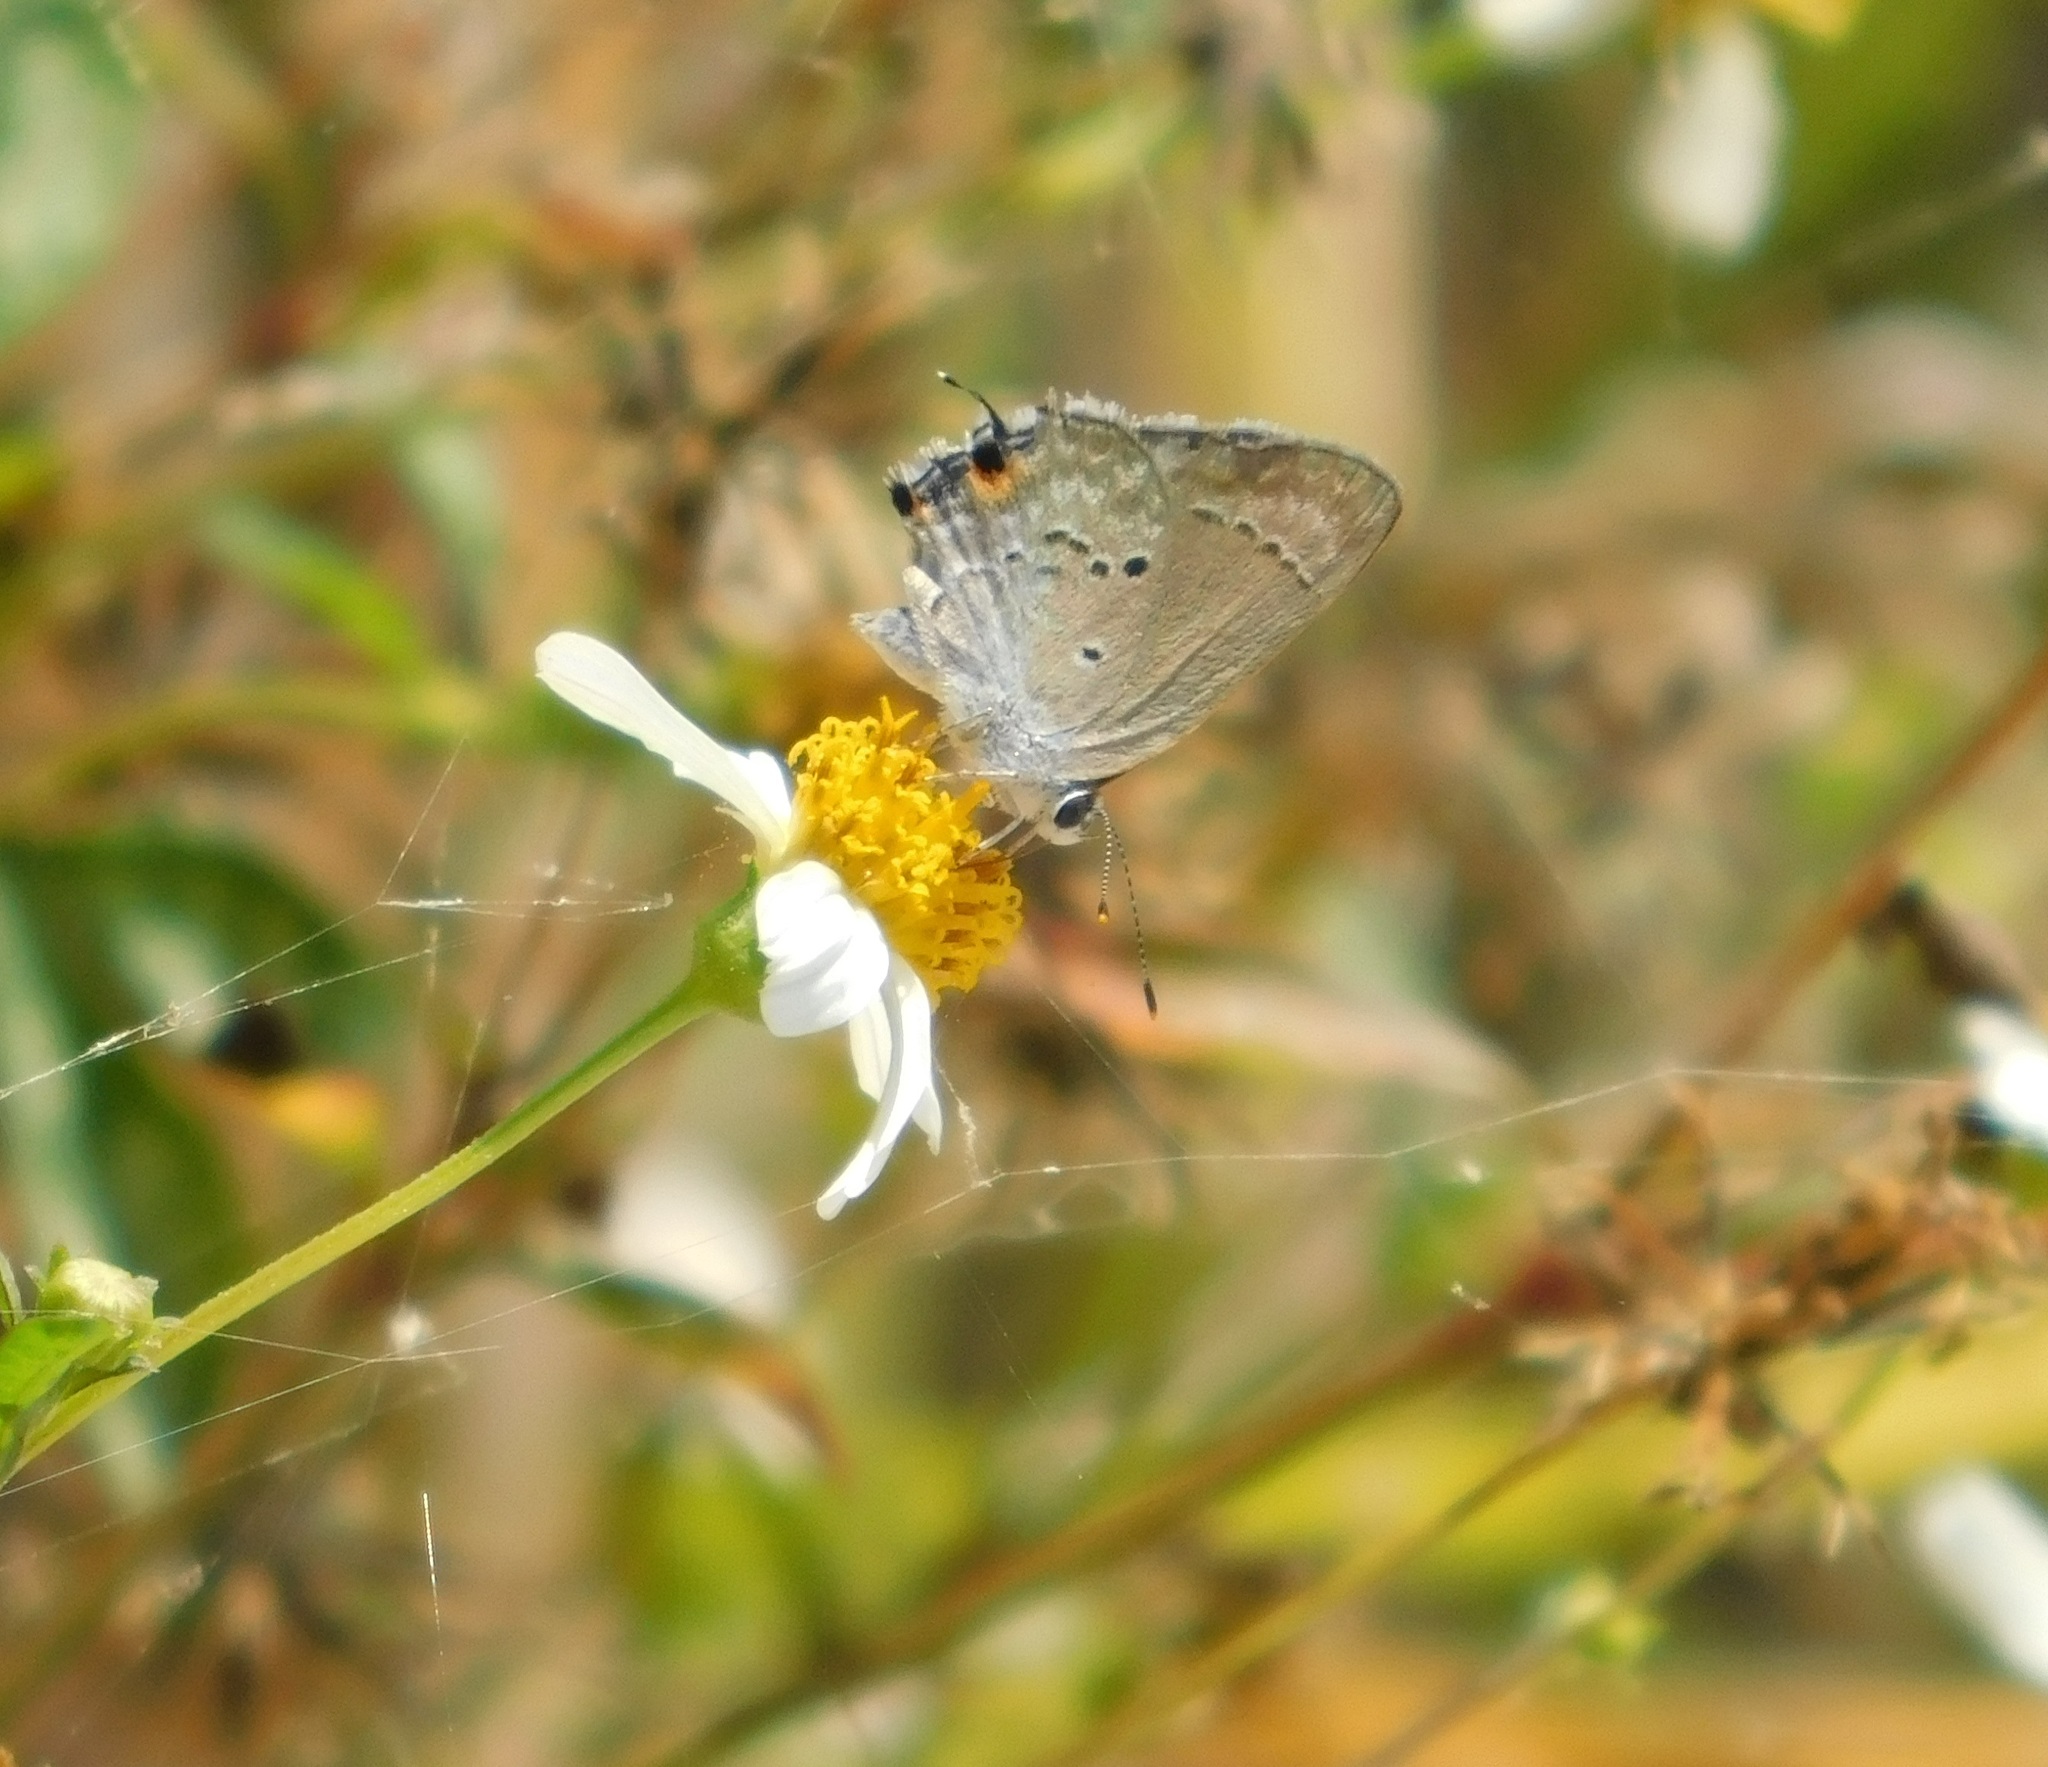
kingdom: Animalia
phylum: Arthropoda
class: Insecta
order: Lepidoptera
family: Lycaenidae
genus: Callicista
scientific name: Callicista columella
